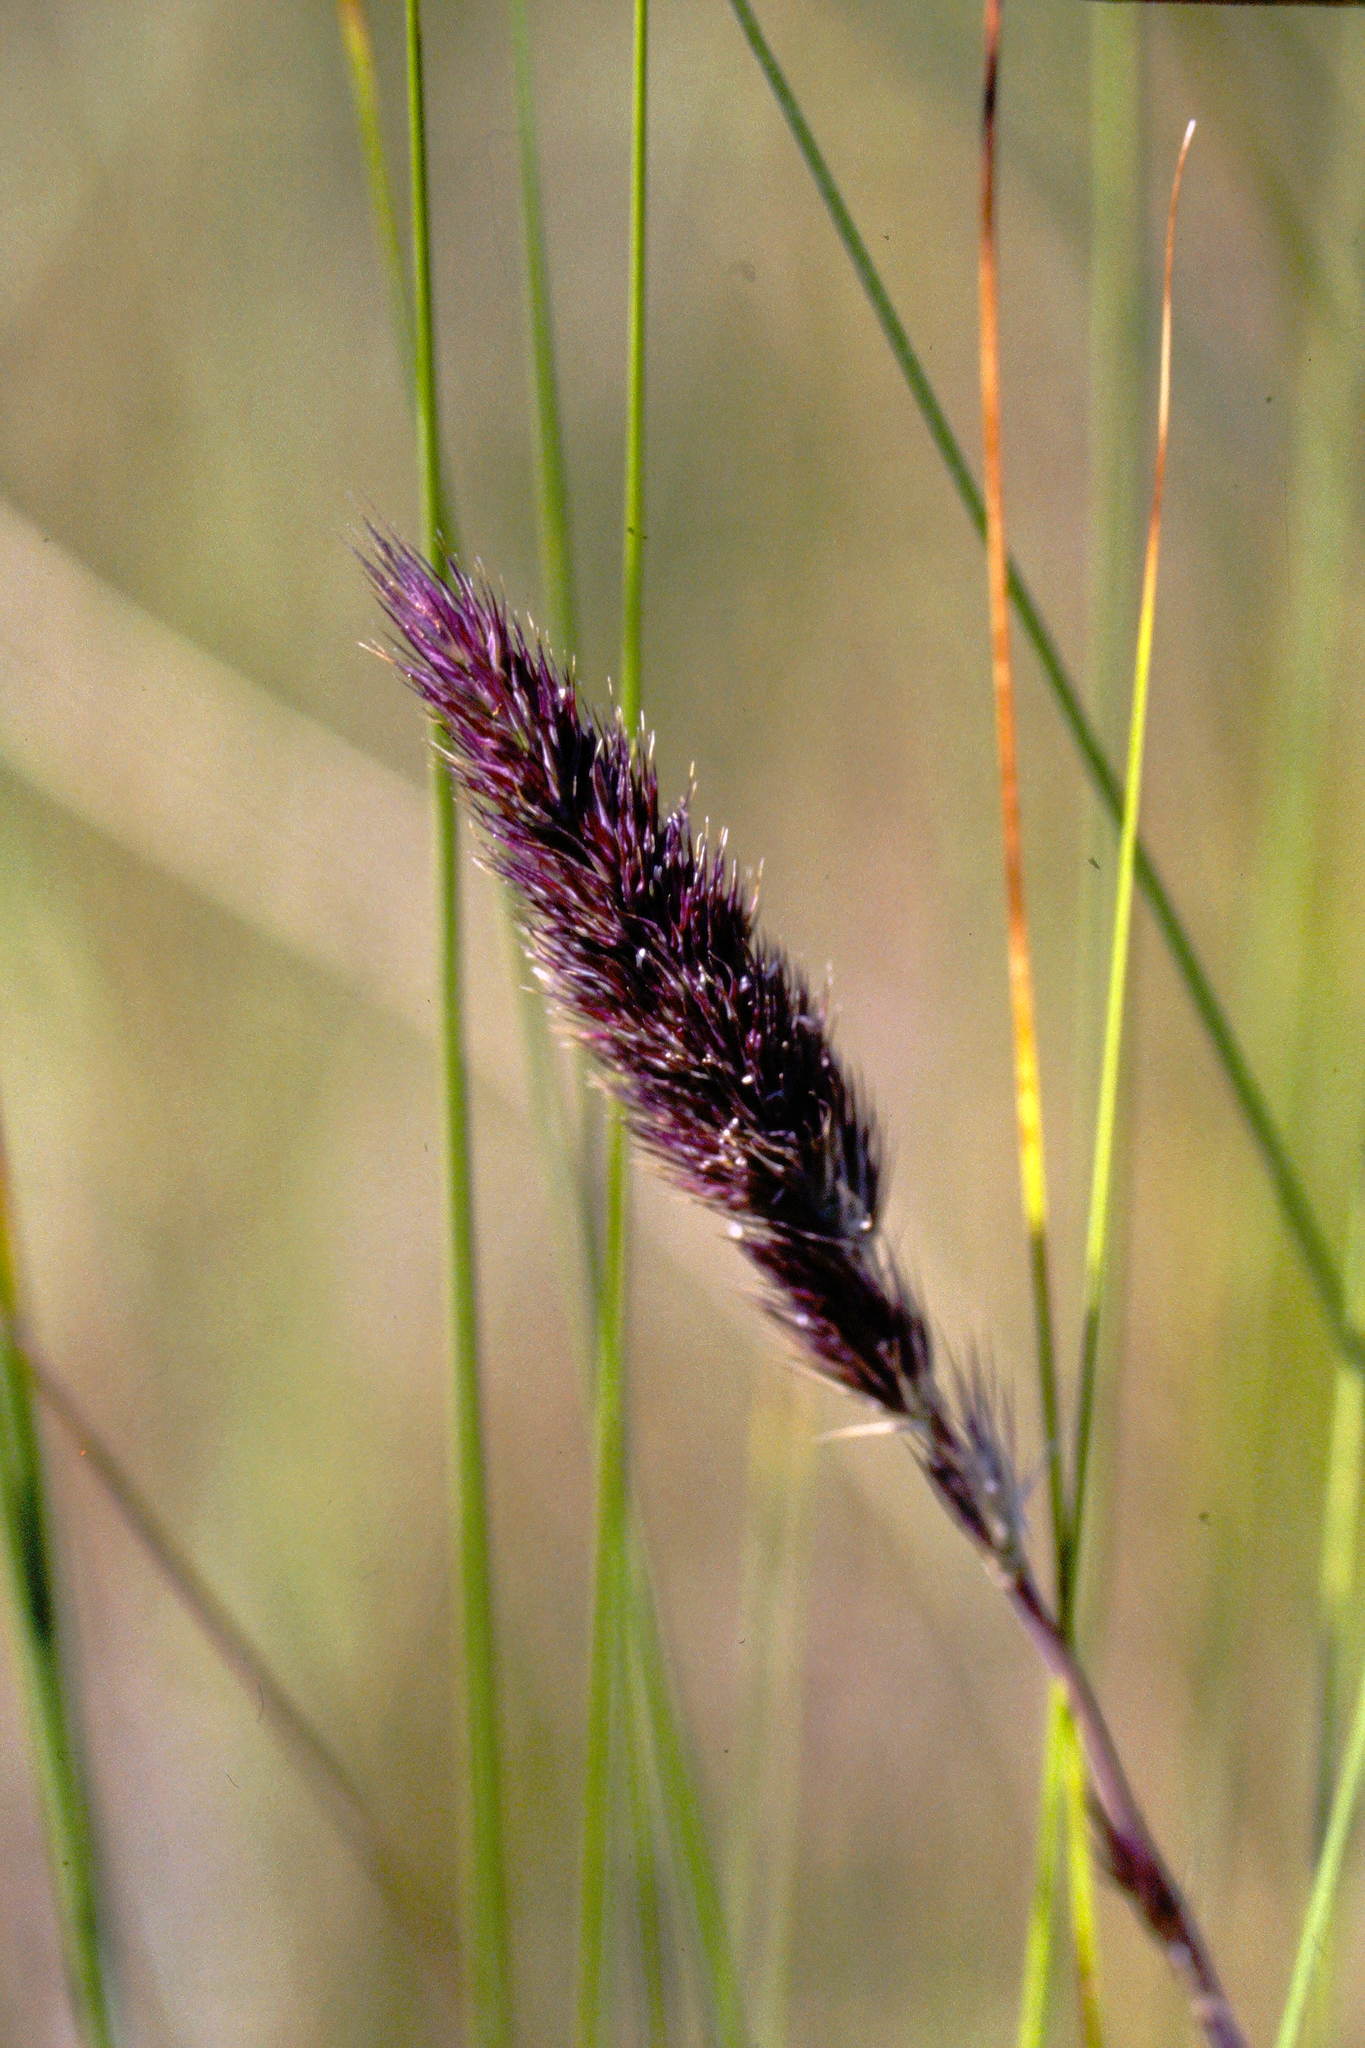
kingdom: Plantae
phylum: Tracheophyta
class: Liliopsida
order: Poales
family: Poaceae
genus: Muhlenbergia
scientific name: Muhlenbergia glomerata
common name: Bog muhly
